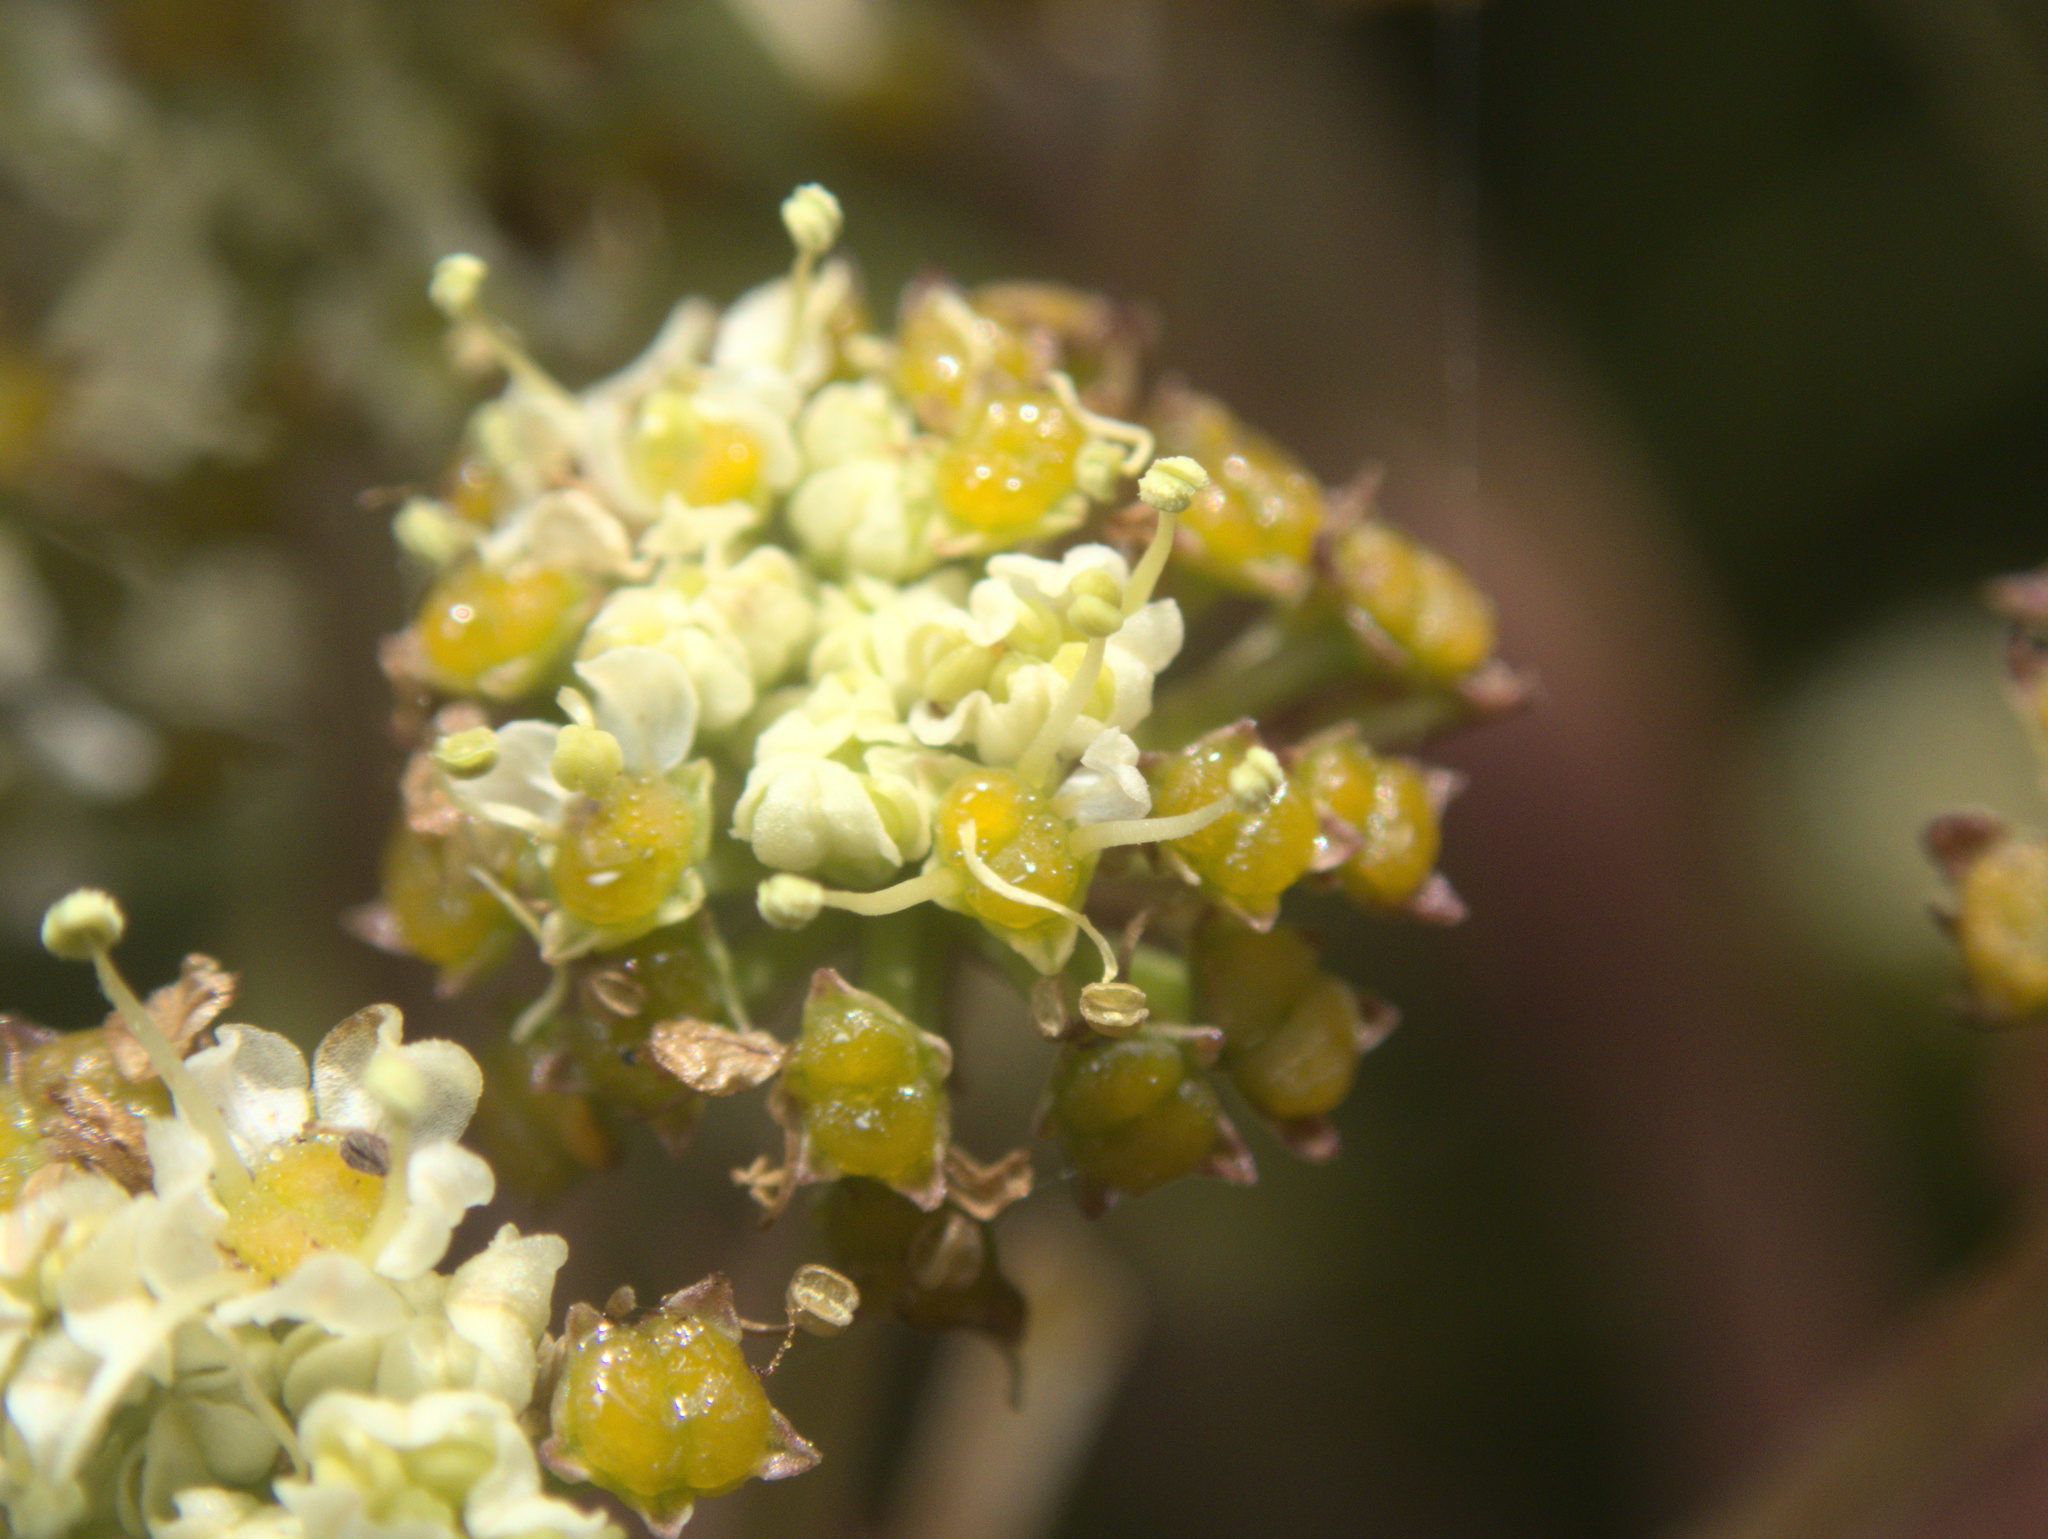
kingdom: Plantae
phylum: Tracheophyta
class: Magnoliopsida
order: Apiales
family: Apiaceae
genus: Aciphylla
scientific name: Aciphylla traversii
